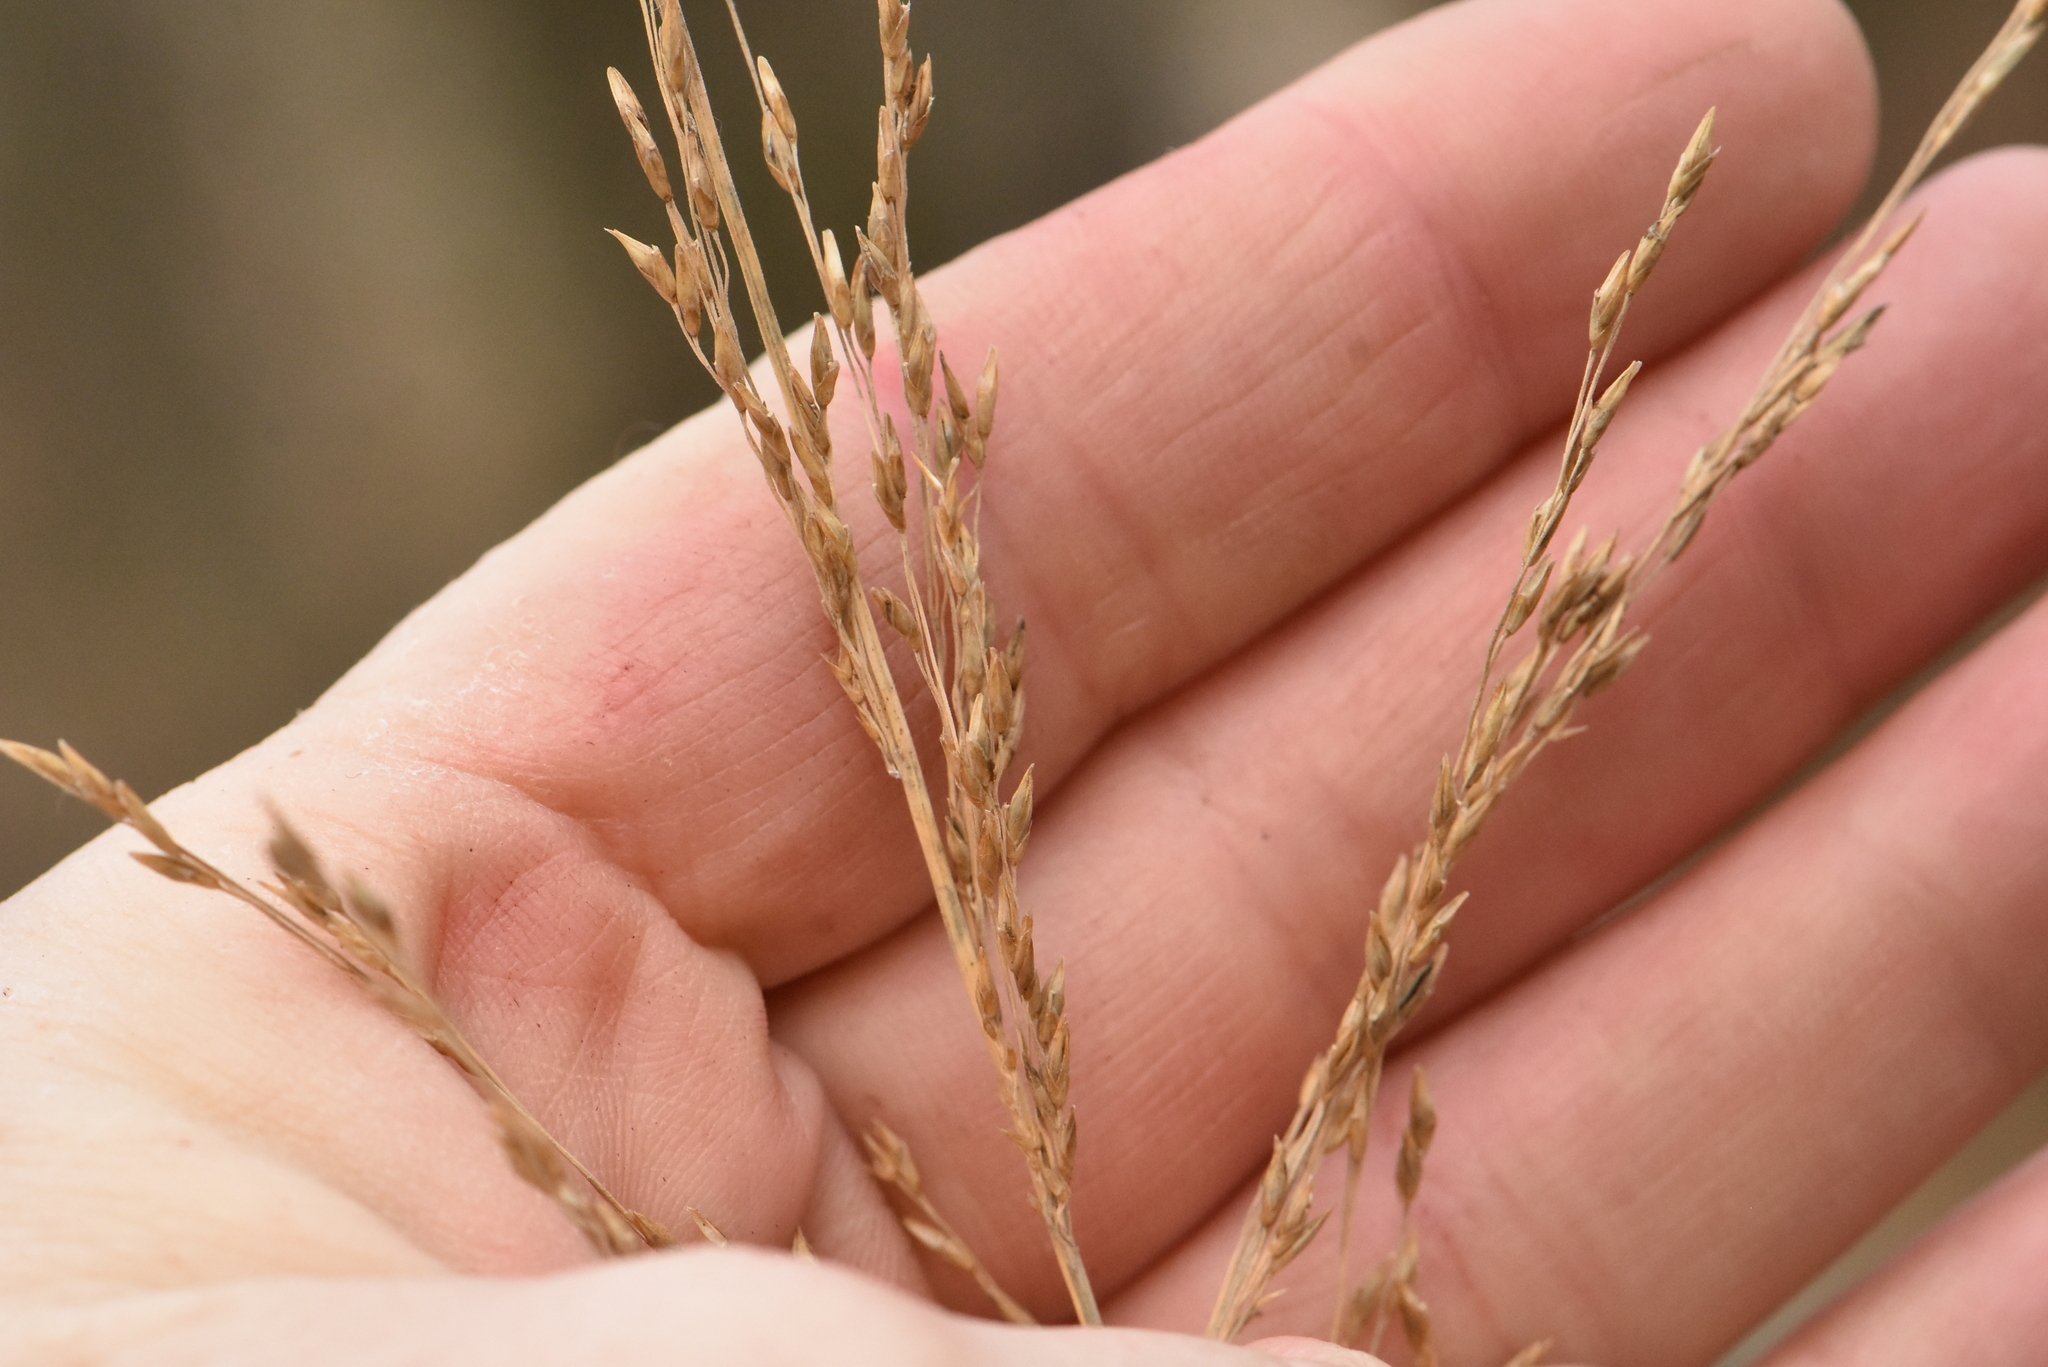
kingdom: Plantae
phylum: Tracheophyta
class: Liliopsida
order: Poales
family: Poaceae
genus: Molinia
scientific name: Molinia caerulea
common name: Purple moor-grass
